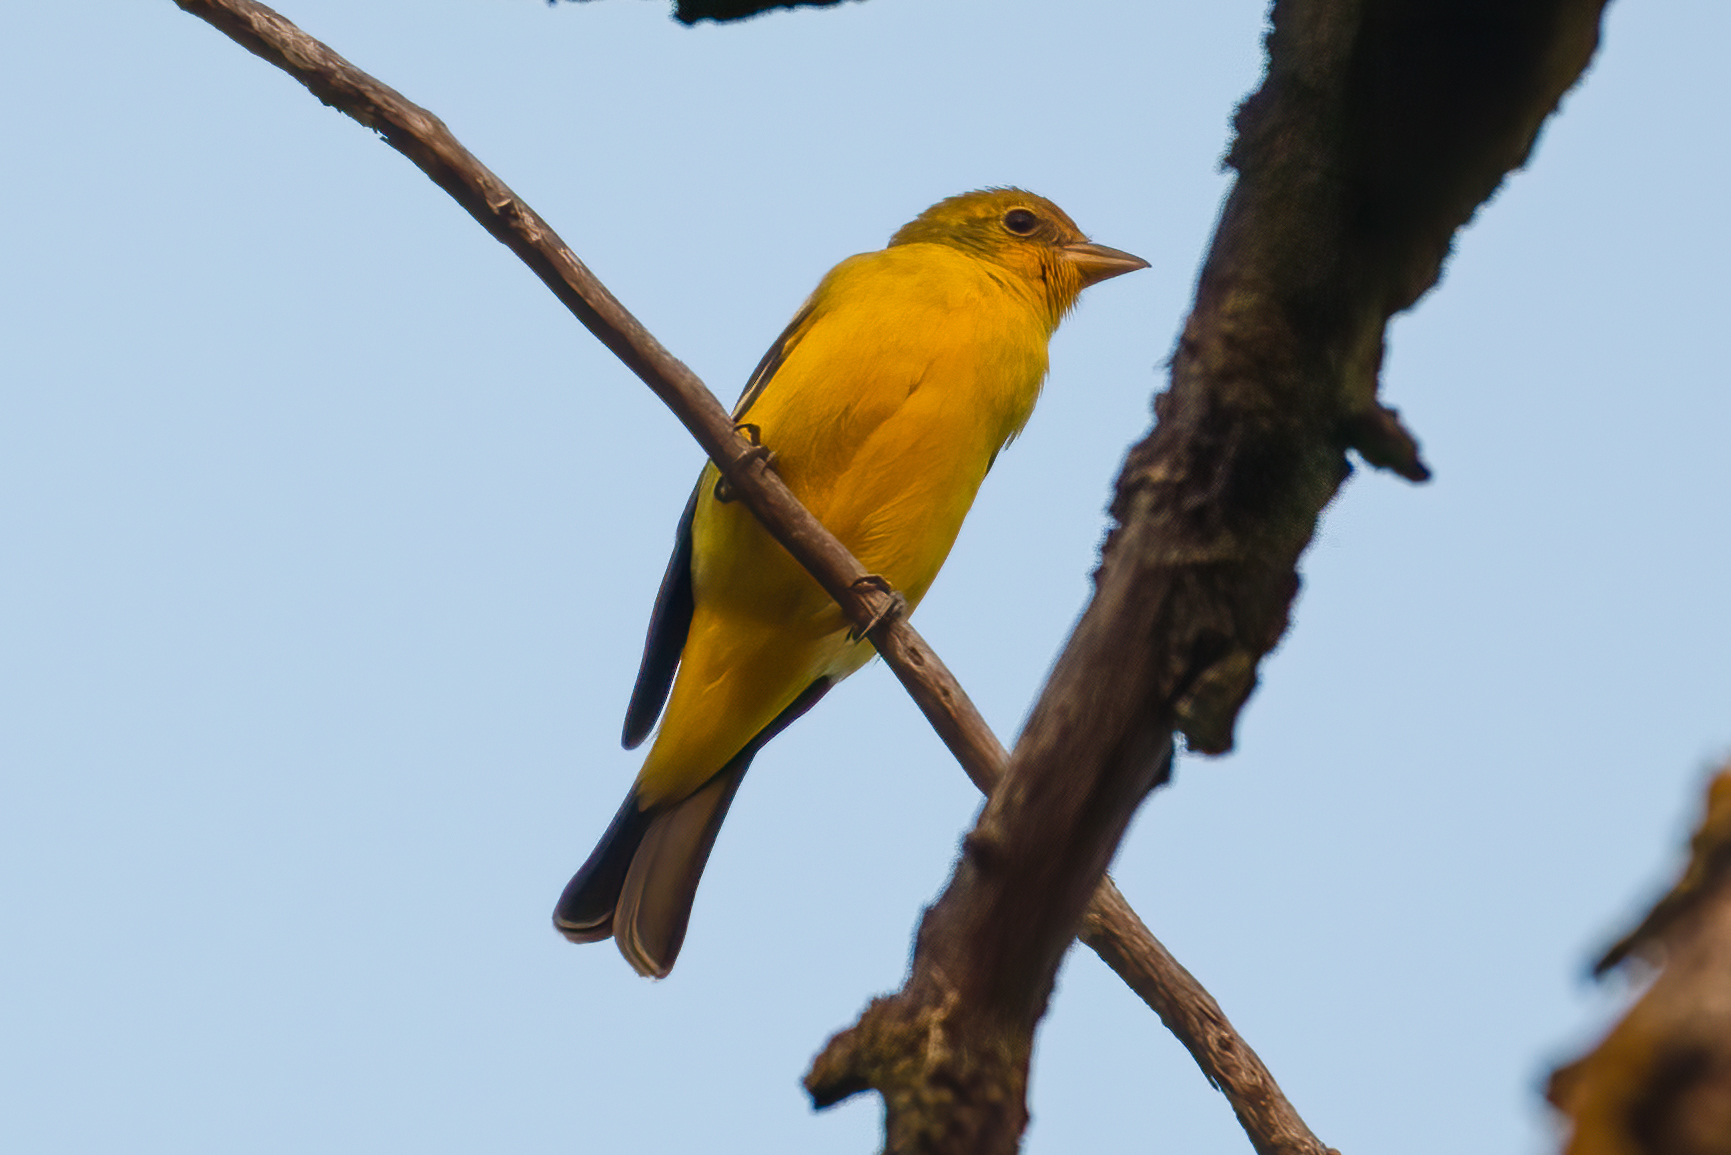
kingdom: Animalia
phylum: Chordata
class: Aves
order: Passeriformes
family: Cardinalidae
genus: Piranga
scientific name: Piranga ludoviciana
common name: Western tanager
